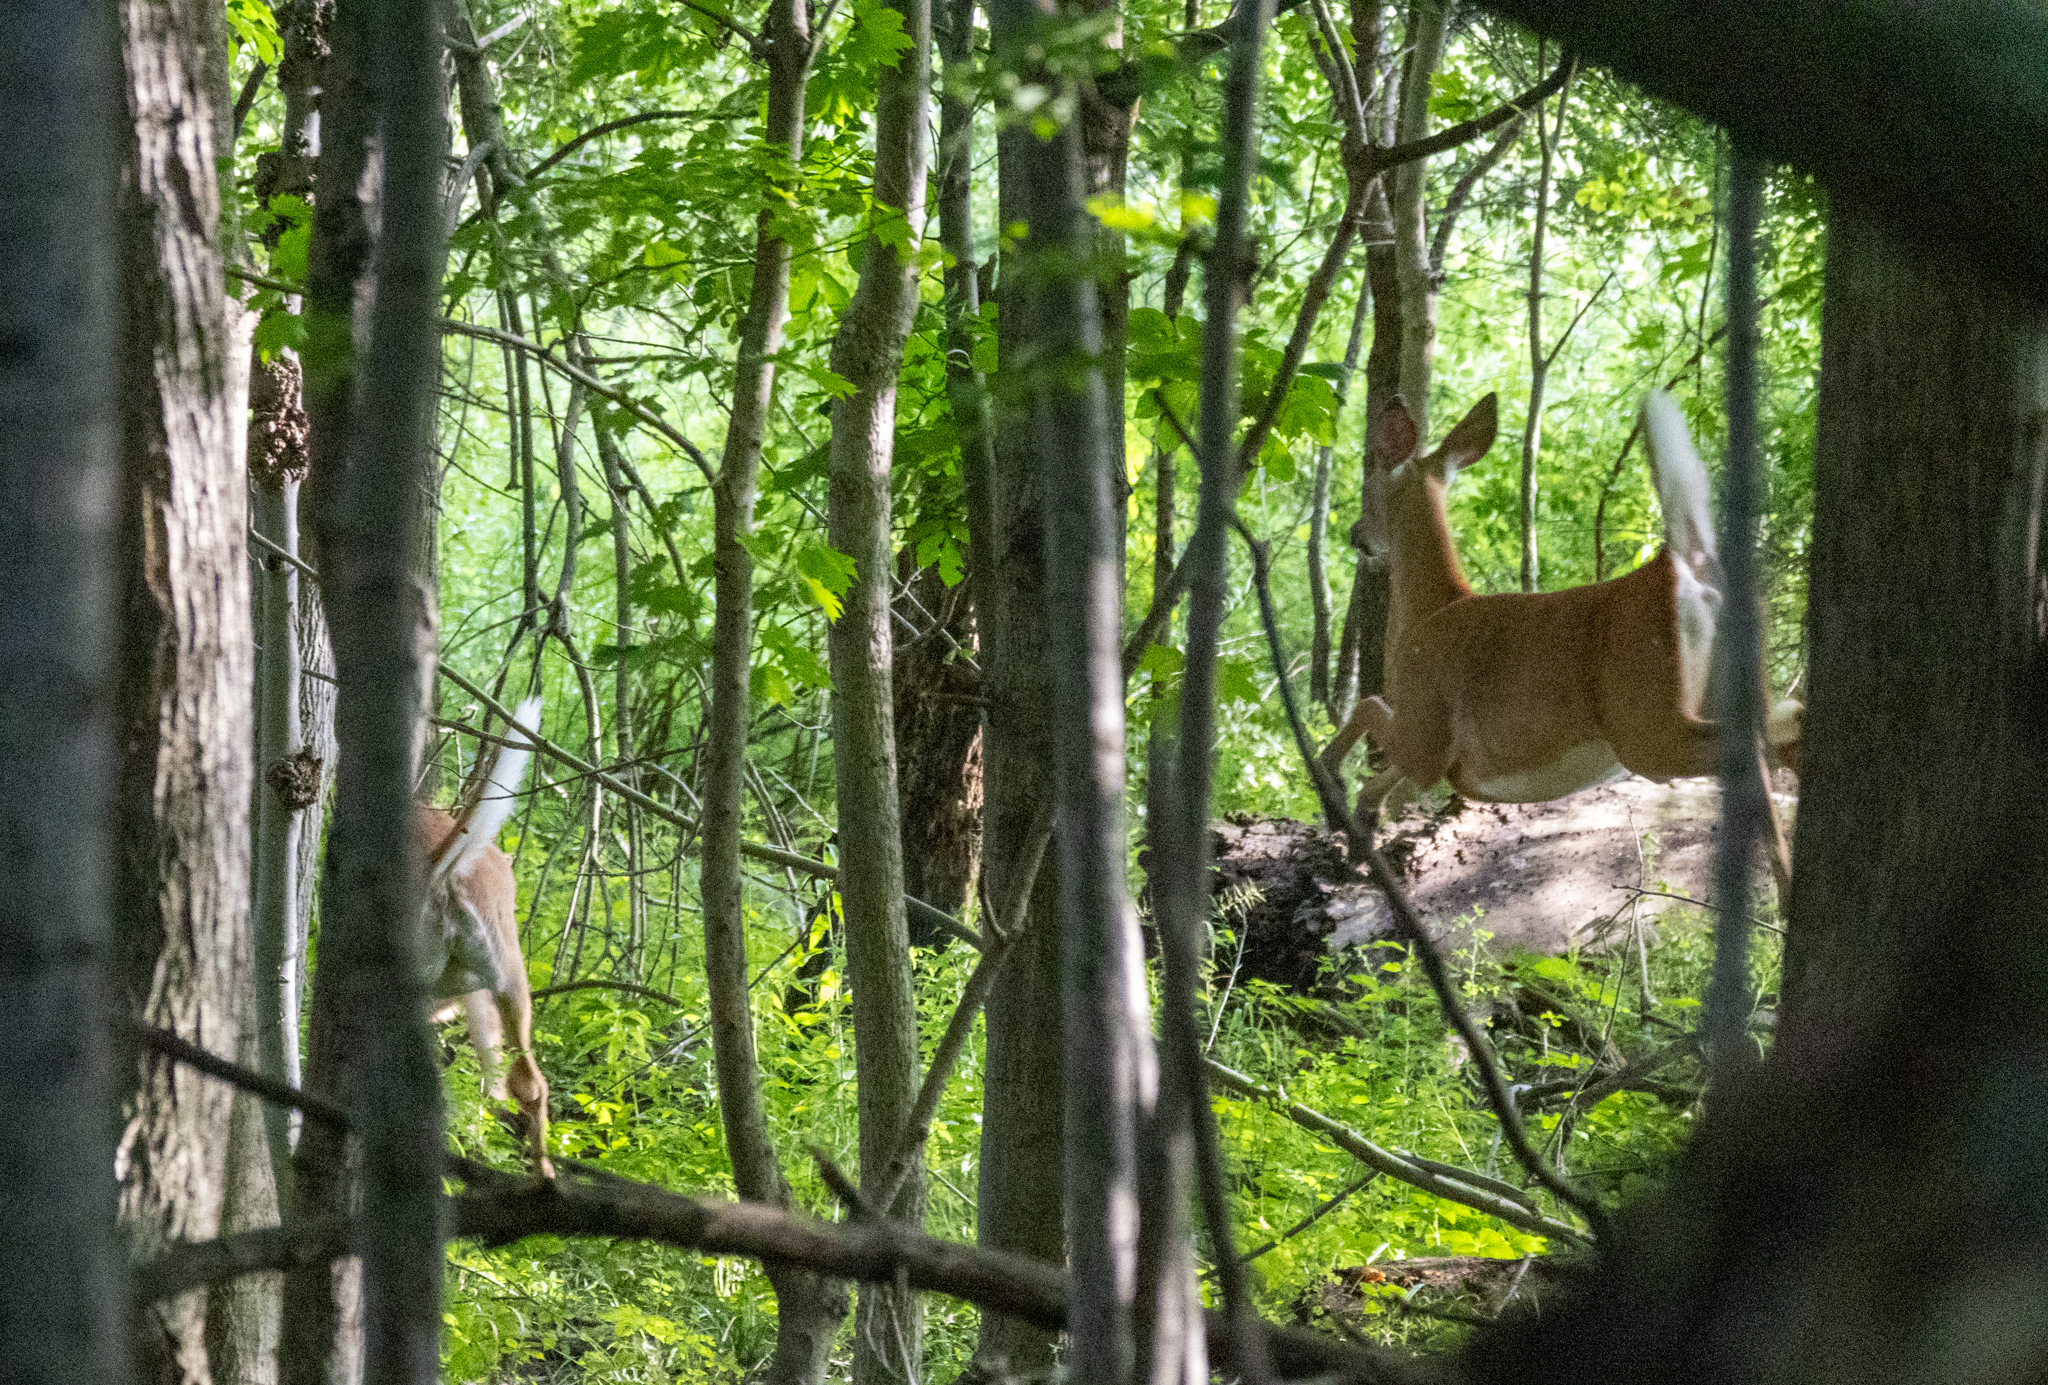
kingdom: Animalia
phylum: Chordata
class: Mammalia
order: Artiodactyla
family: Cervidae
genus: Odocoileus
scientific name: Odocoileus virginianus
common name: White-tailed deer
